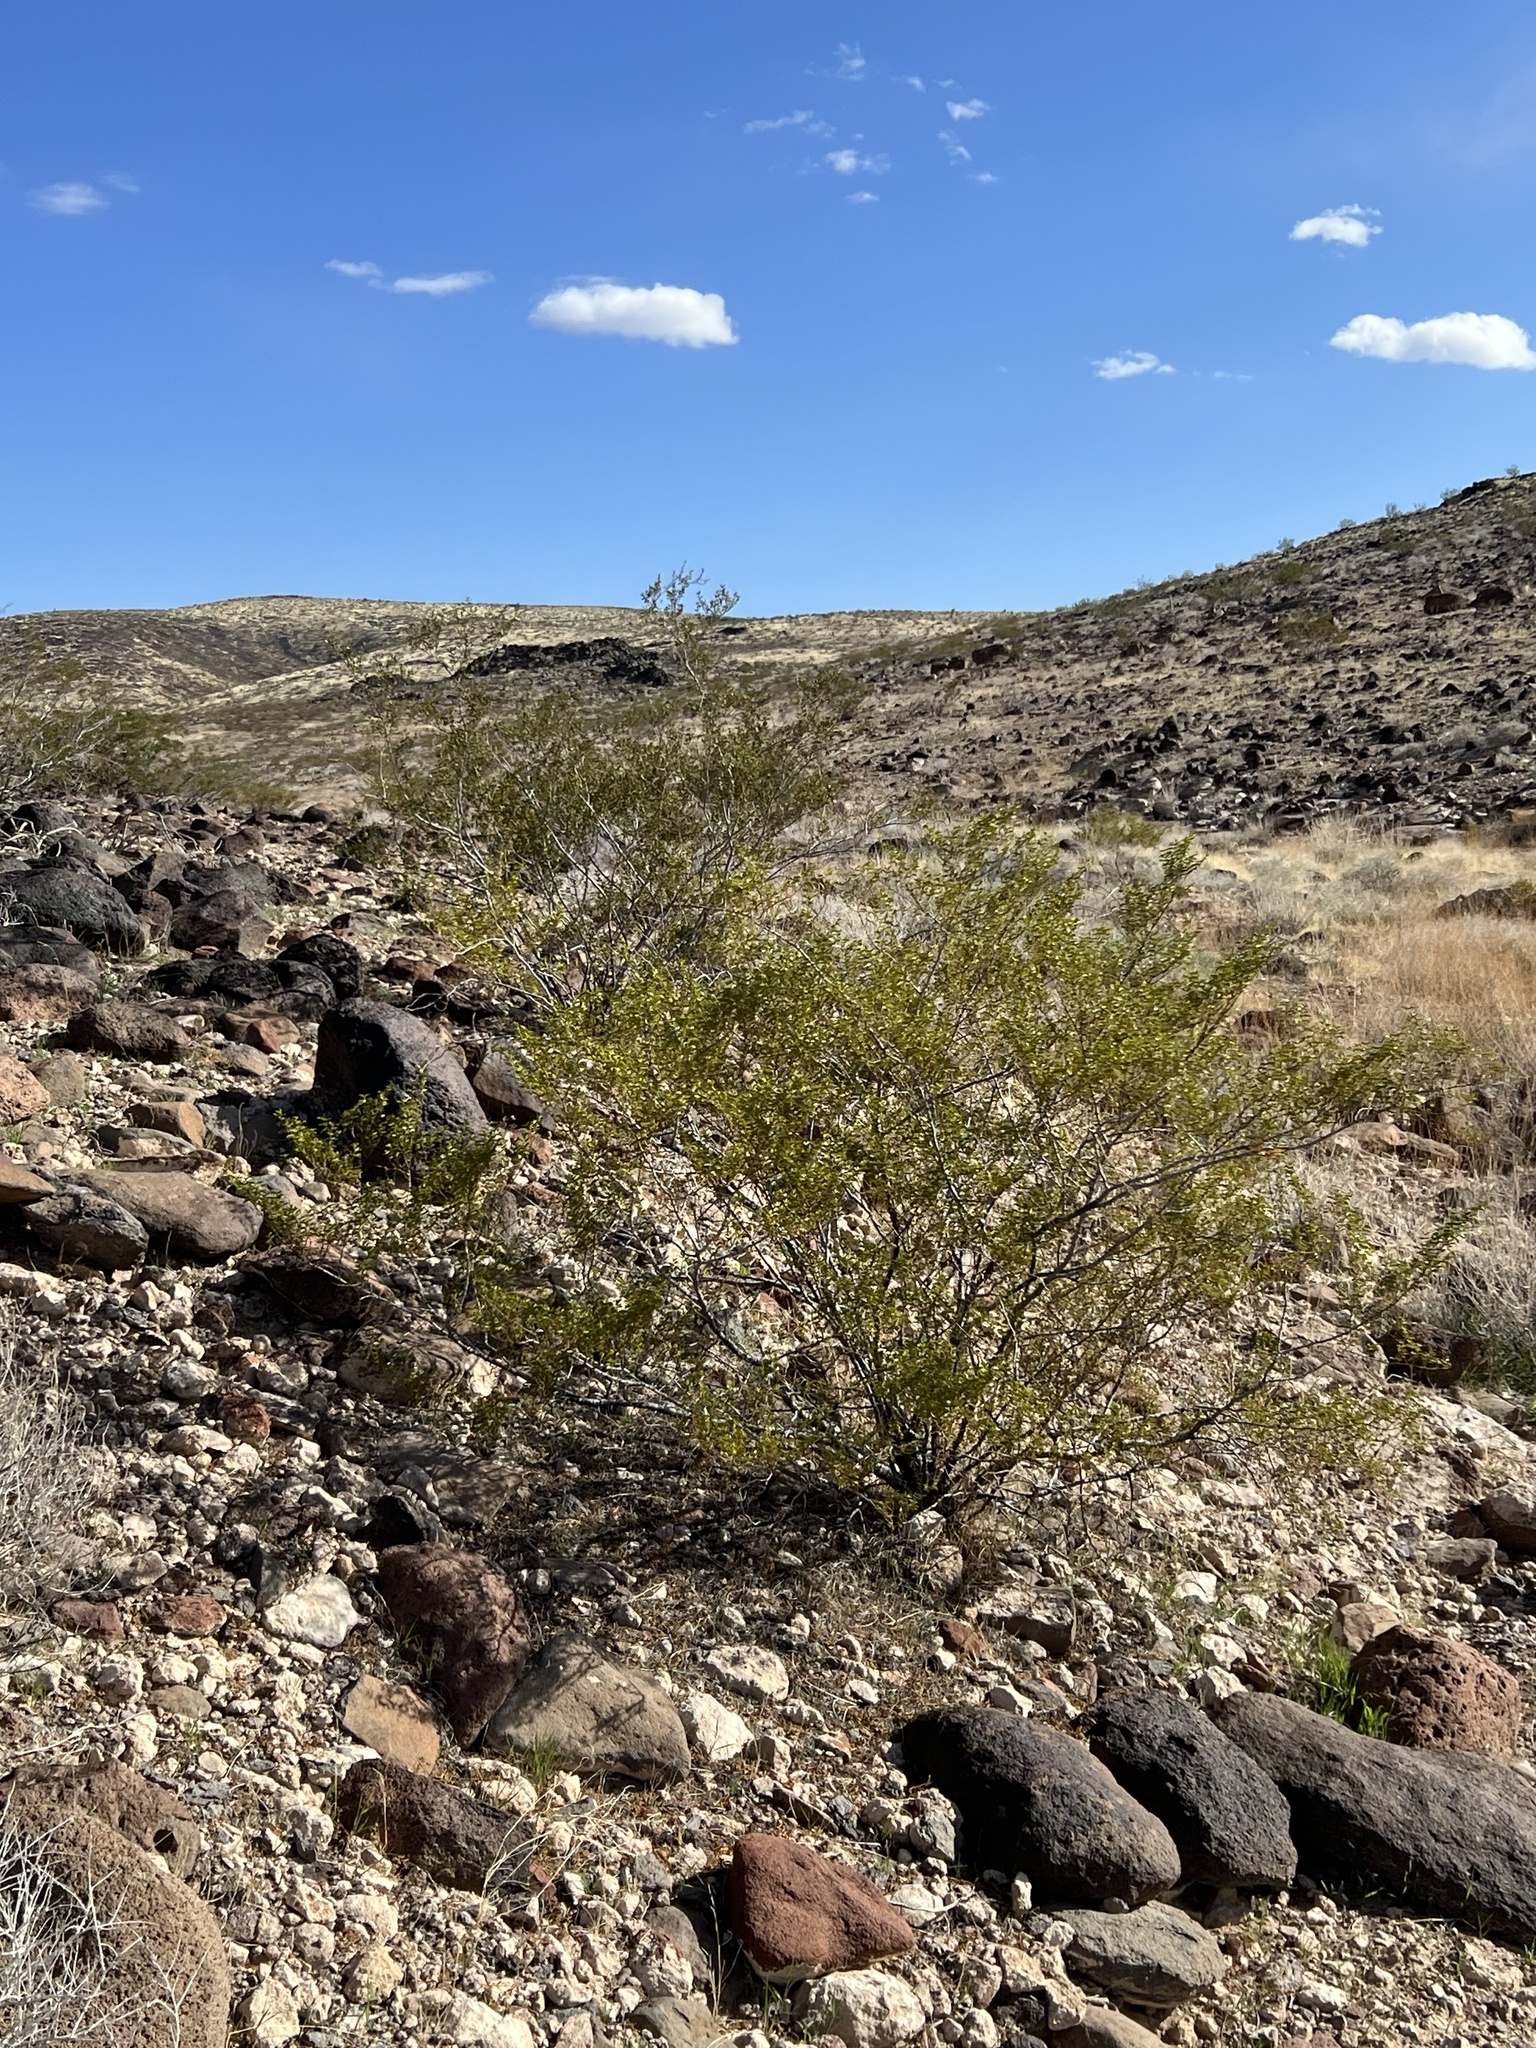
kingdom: Plantae
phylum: Tracheophyta
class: Magnoliopsida
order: Zygophyllales
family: Zygophyllaceae
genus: Larrea
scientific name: Larrea tridentata
